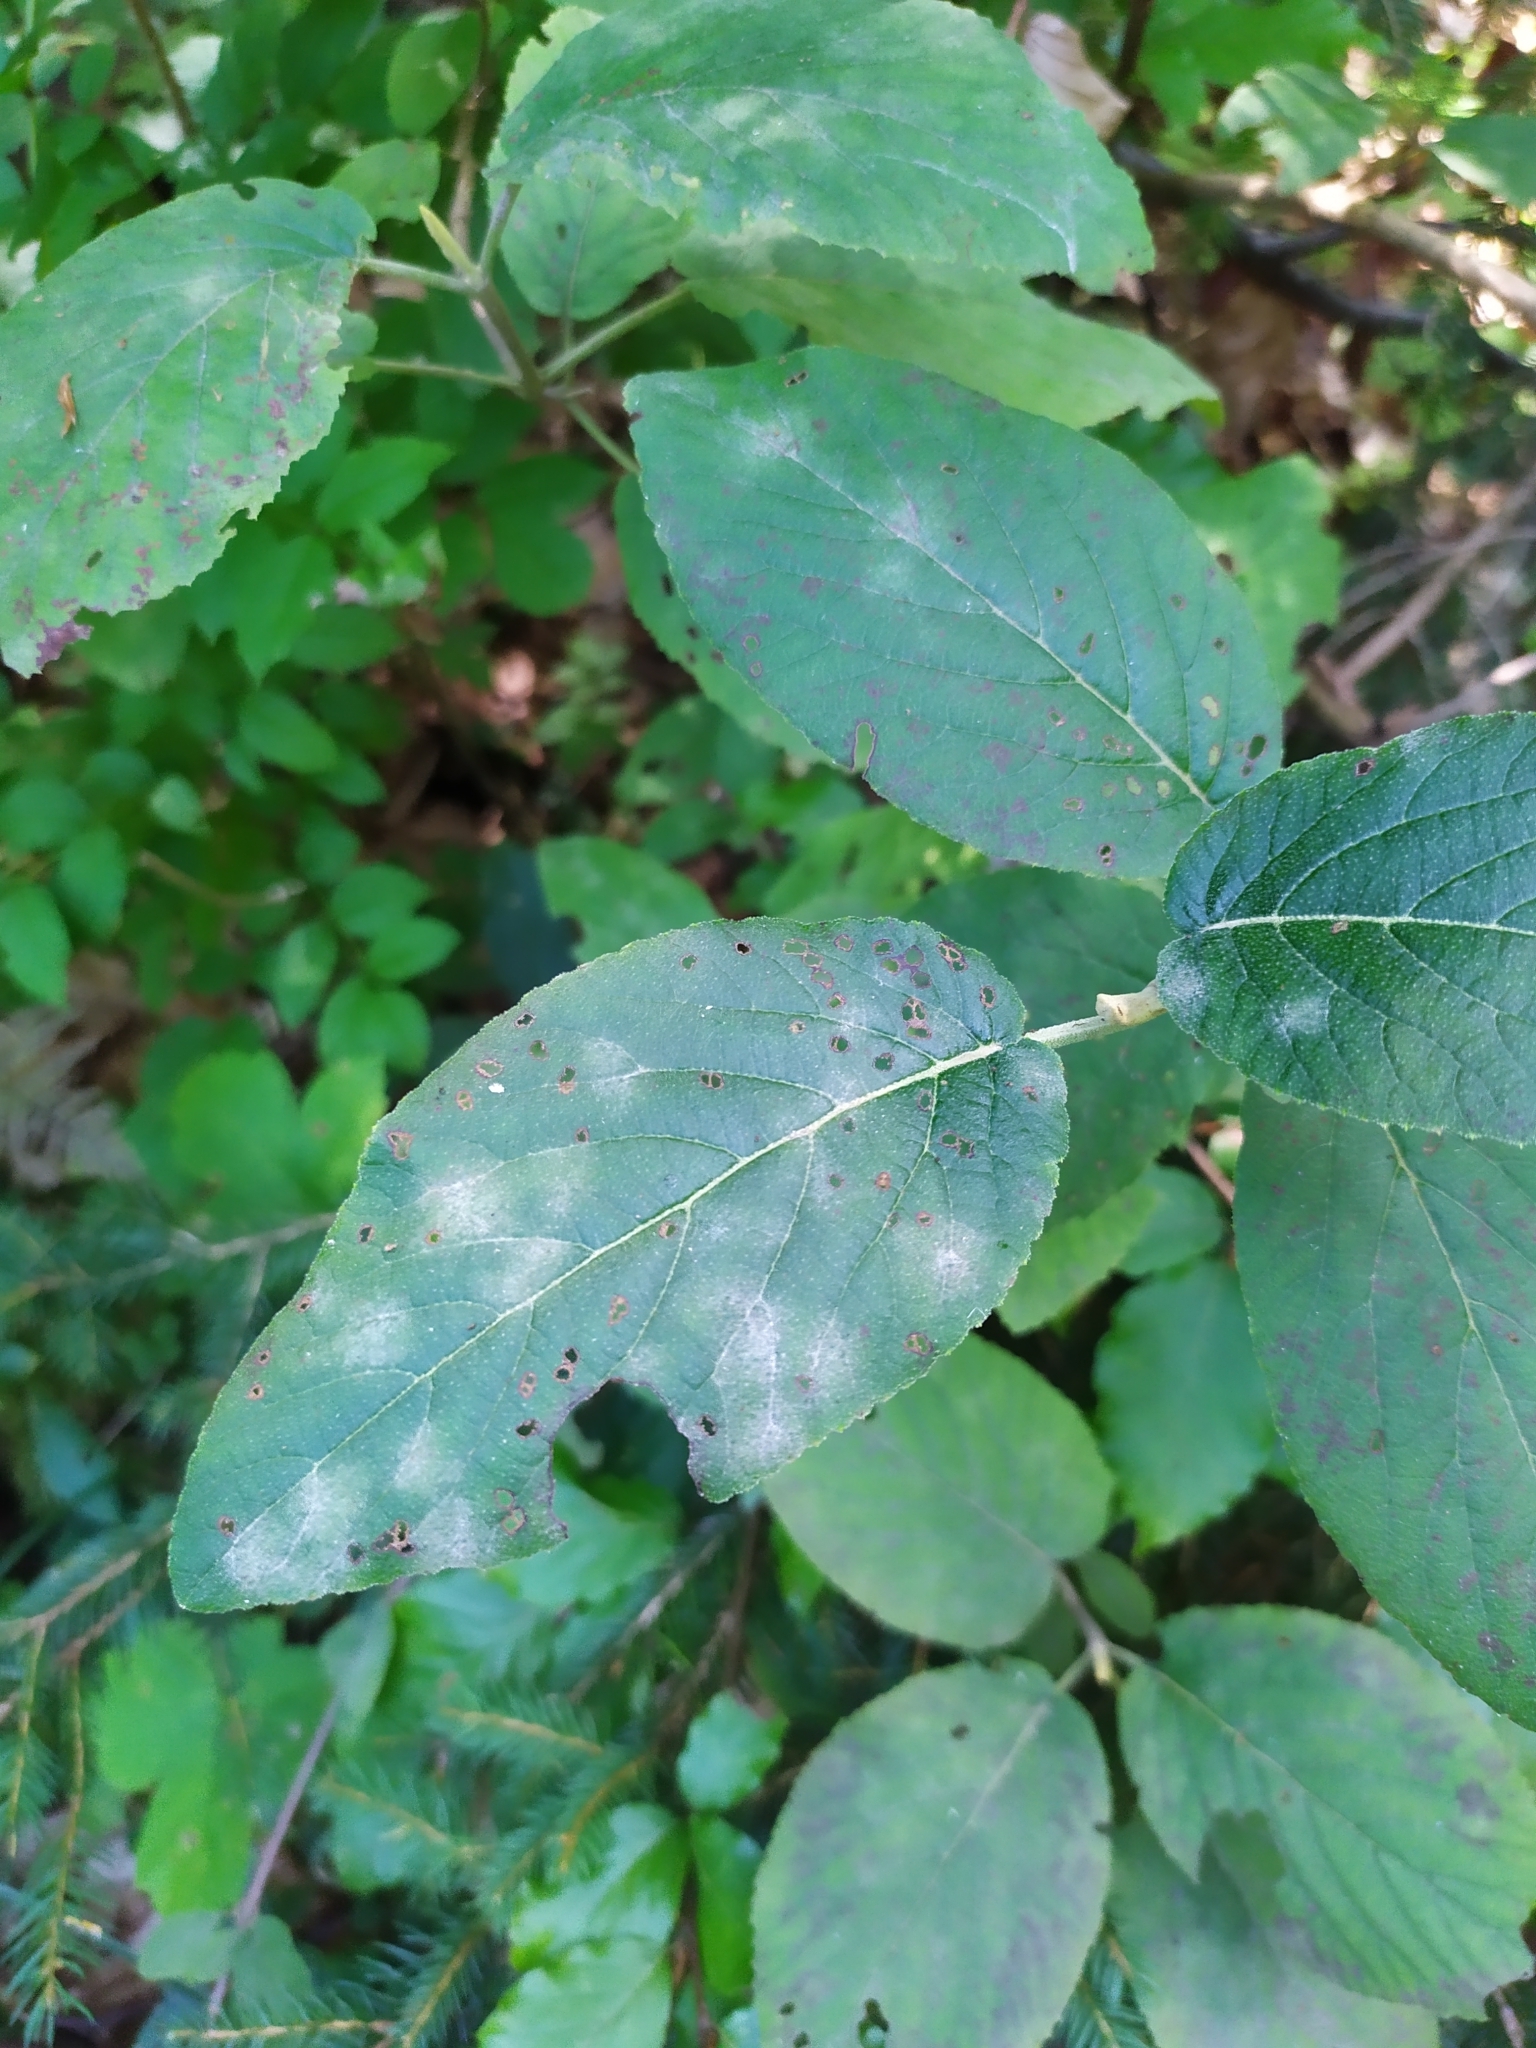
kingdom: Fungi
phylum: Ascomycota
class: Leotiomycetes
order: Helotiales
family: Erysiphaceae
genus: Erysiphe
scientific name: Erysiphe viburni
